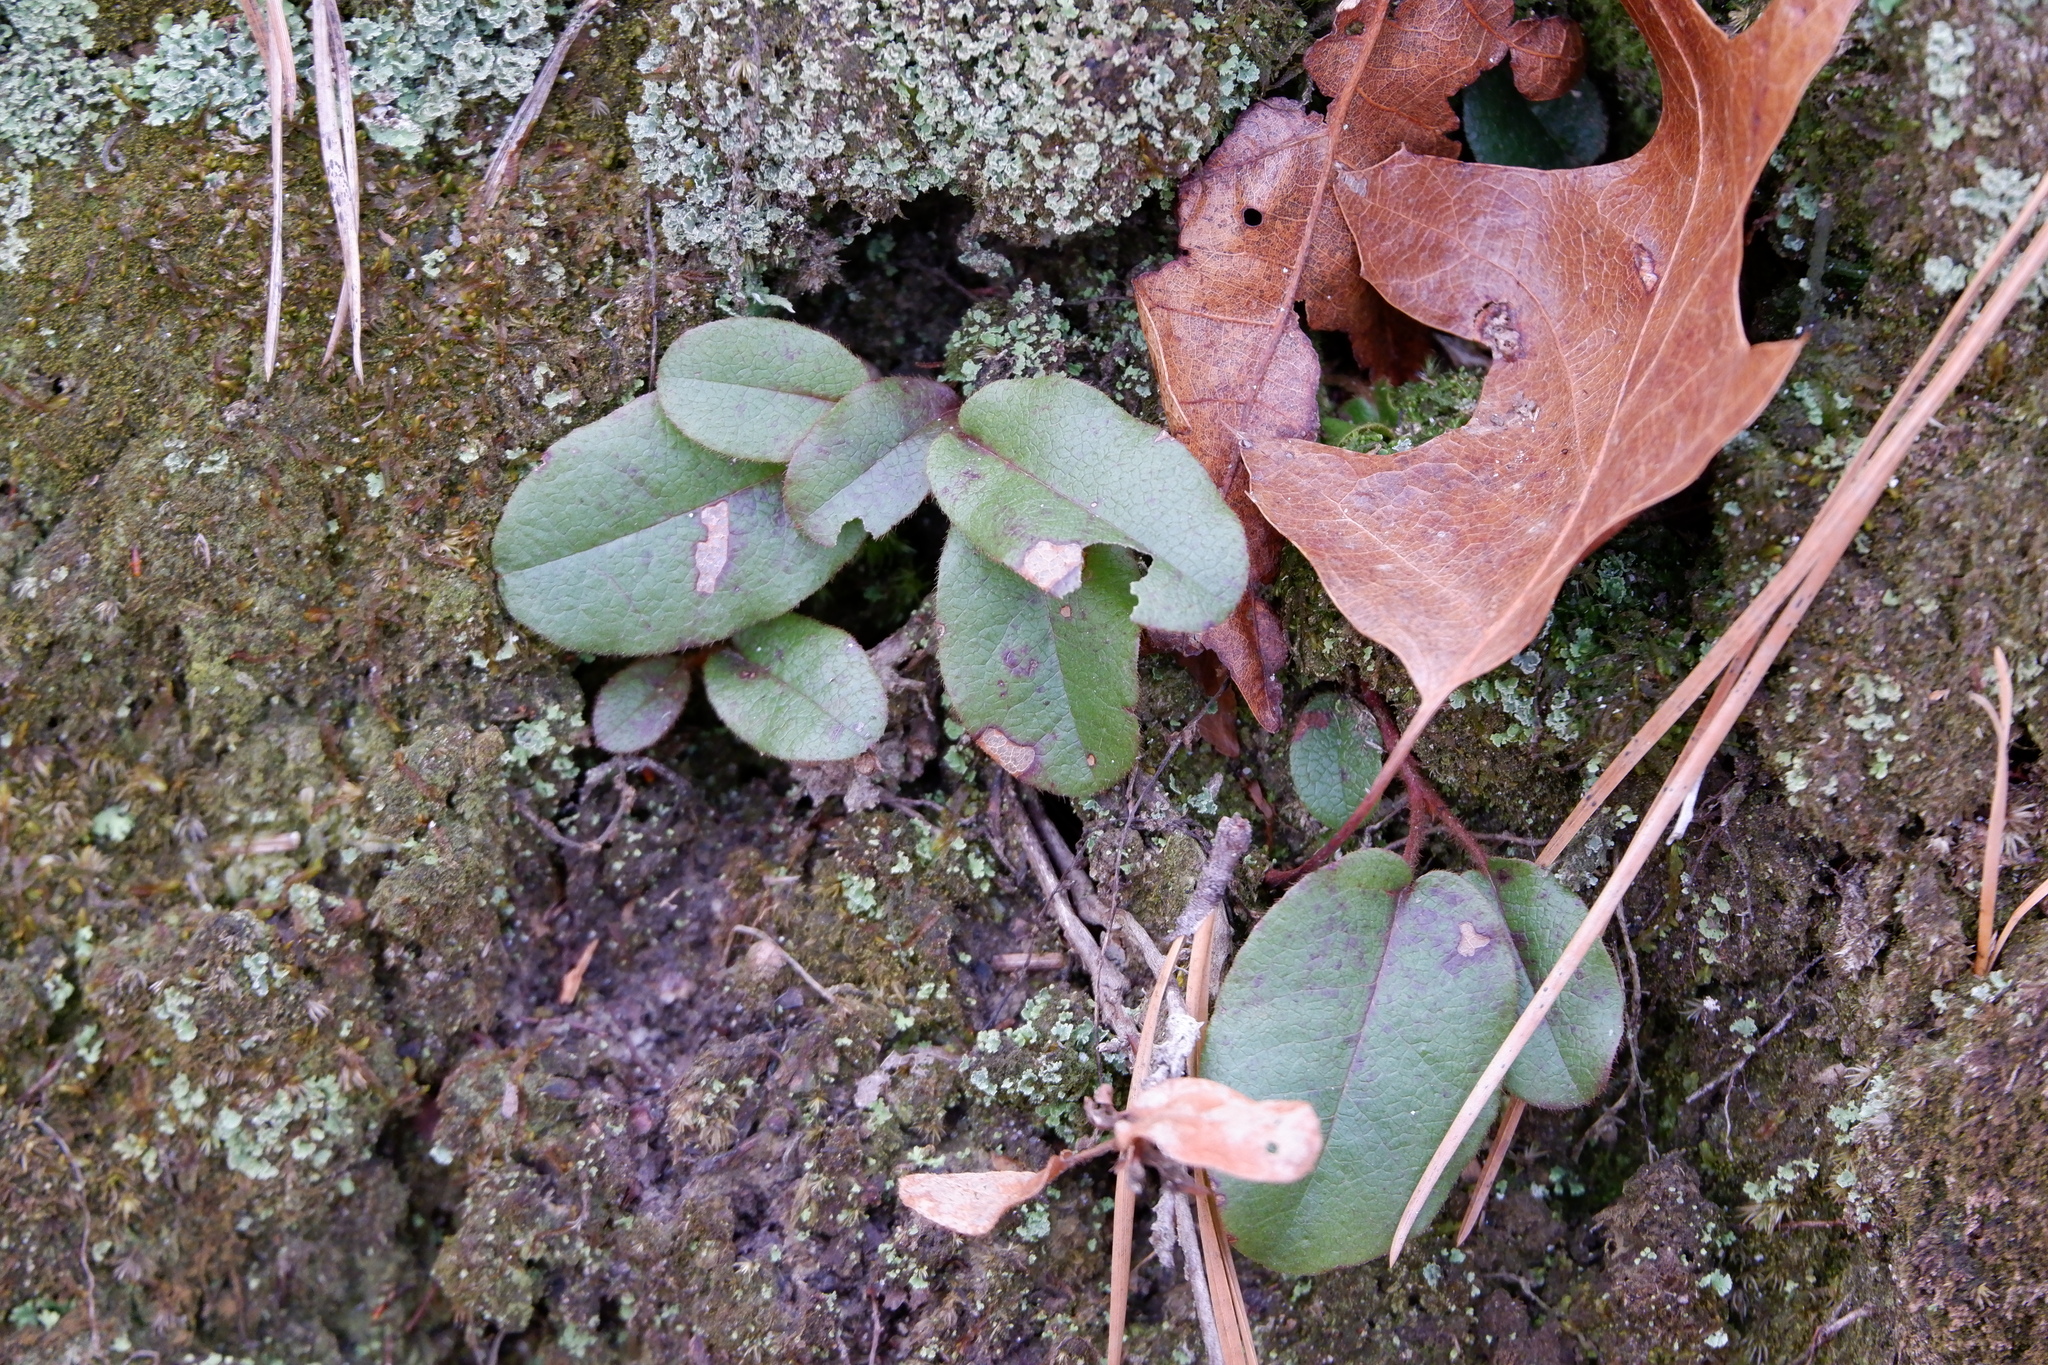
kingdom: Plantae
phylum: Tracheophyta
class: Magnoliopsida
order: Ericales
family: Ericaceae
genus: Epigaea
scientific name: Epigaea repens
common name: Gravelroot
